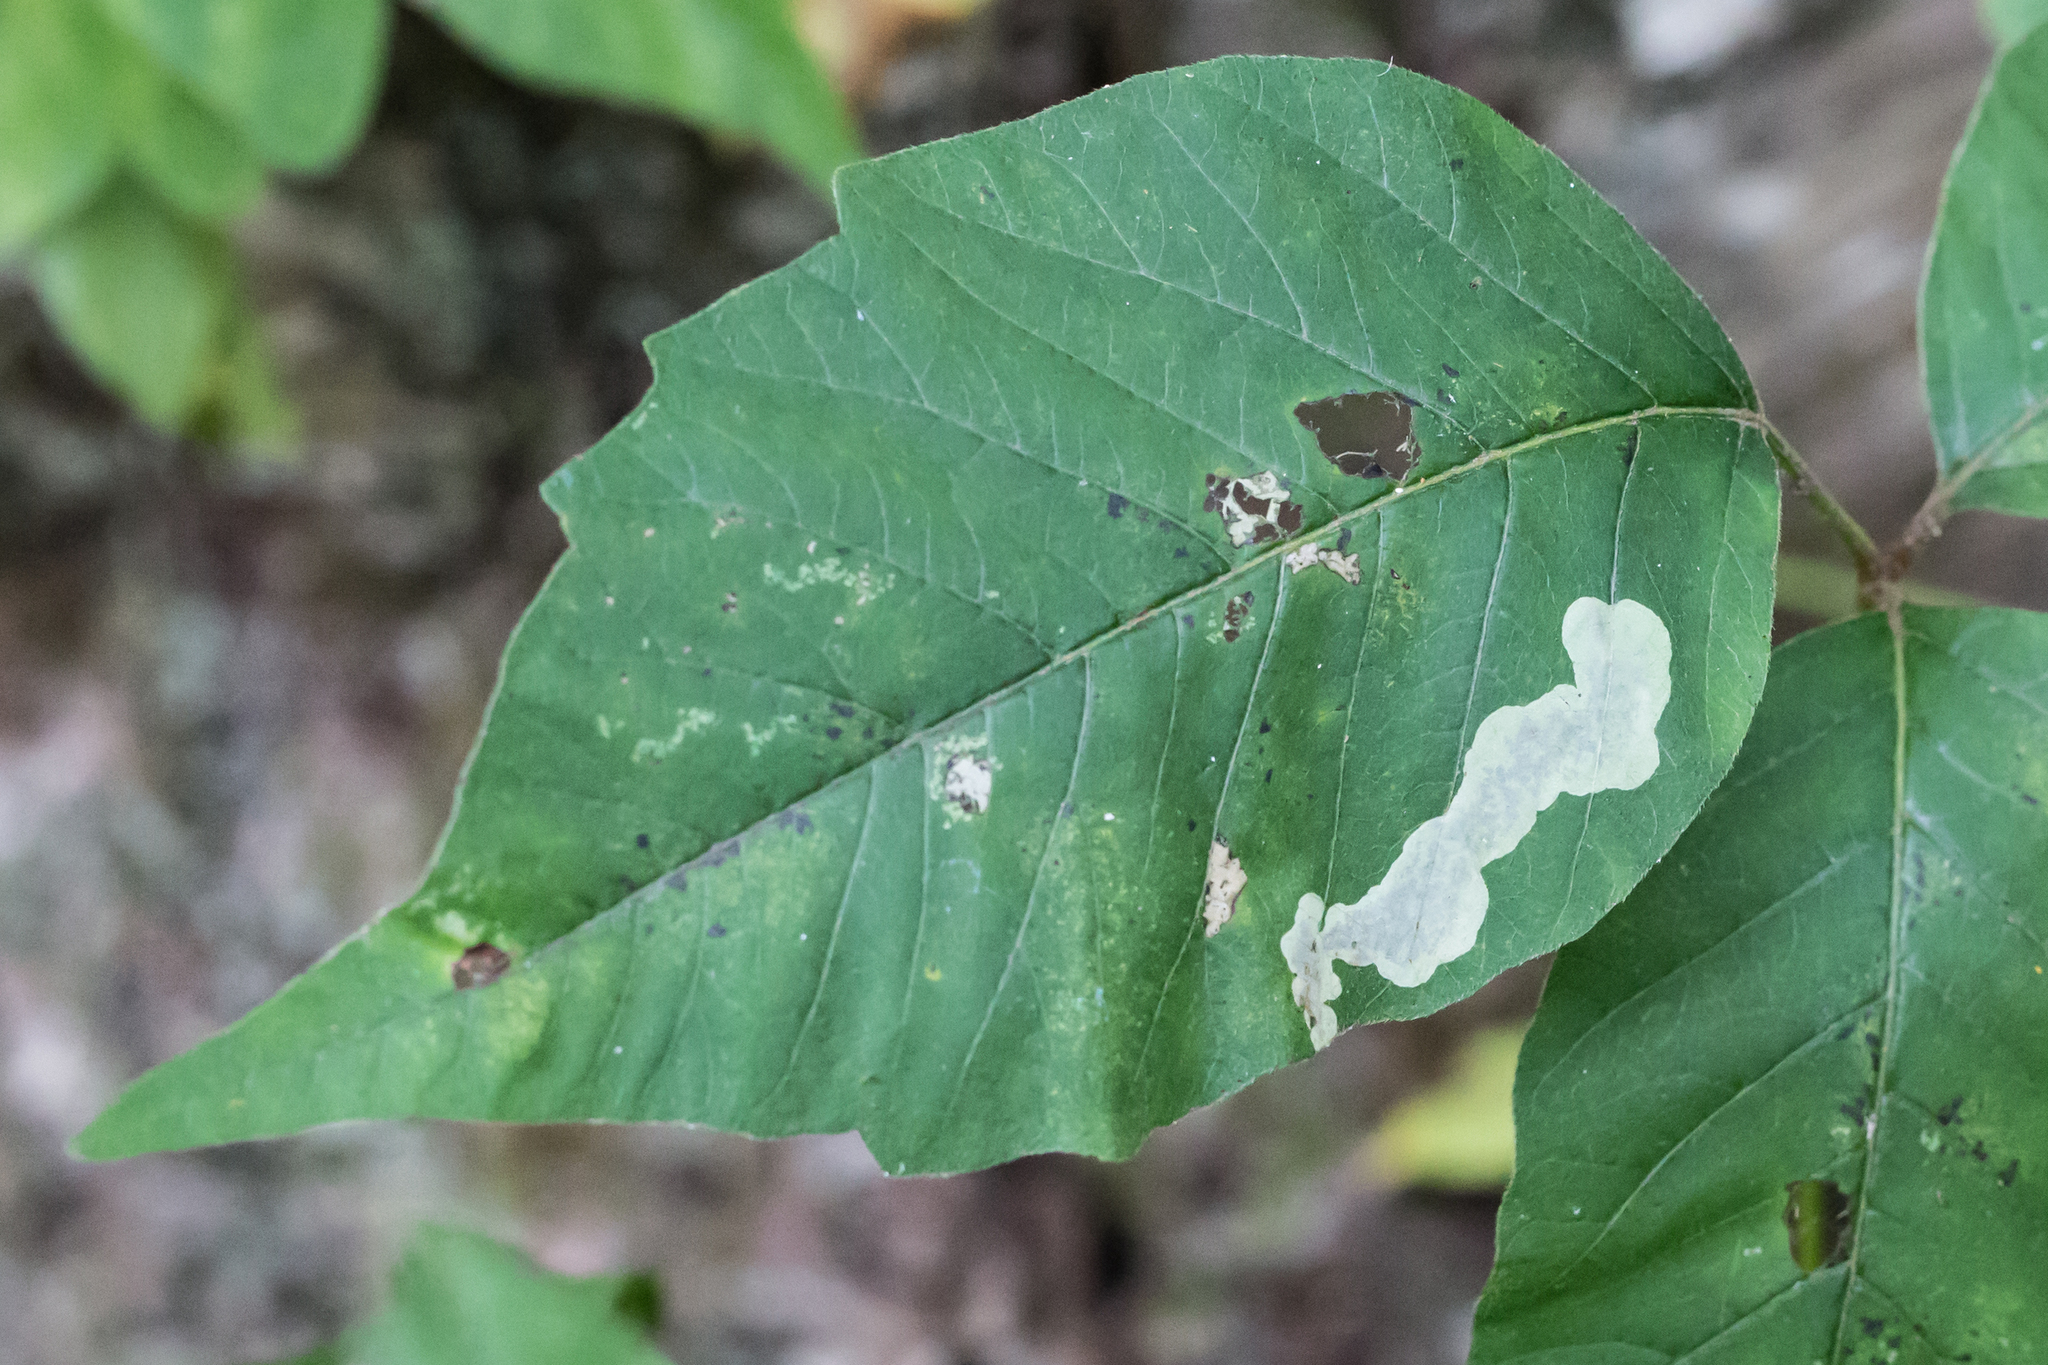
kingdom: Animalia
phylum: Arthropoda
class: Insecta
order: Lepidoptera
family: Gracillariidae
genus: Cameraria
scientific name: Cameraria guttifinitella
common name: Poison ivy leaf-miner moth
